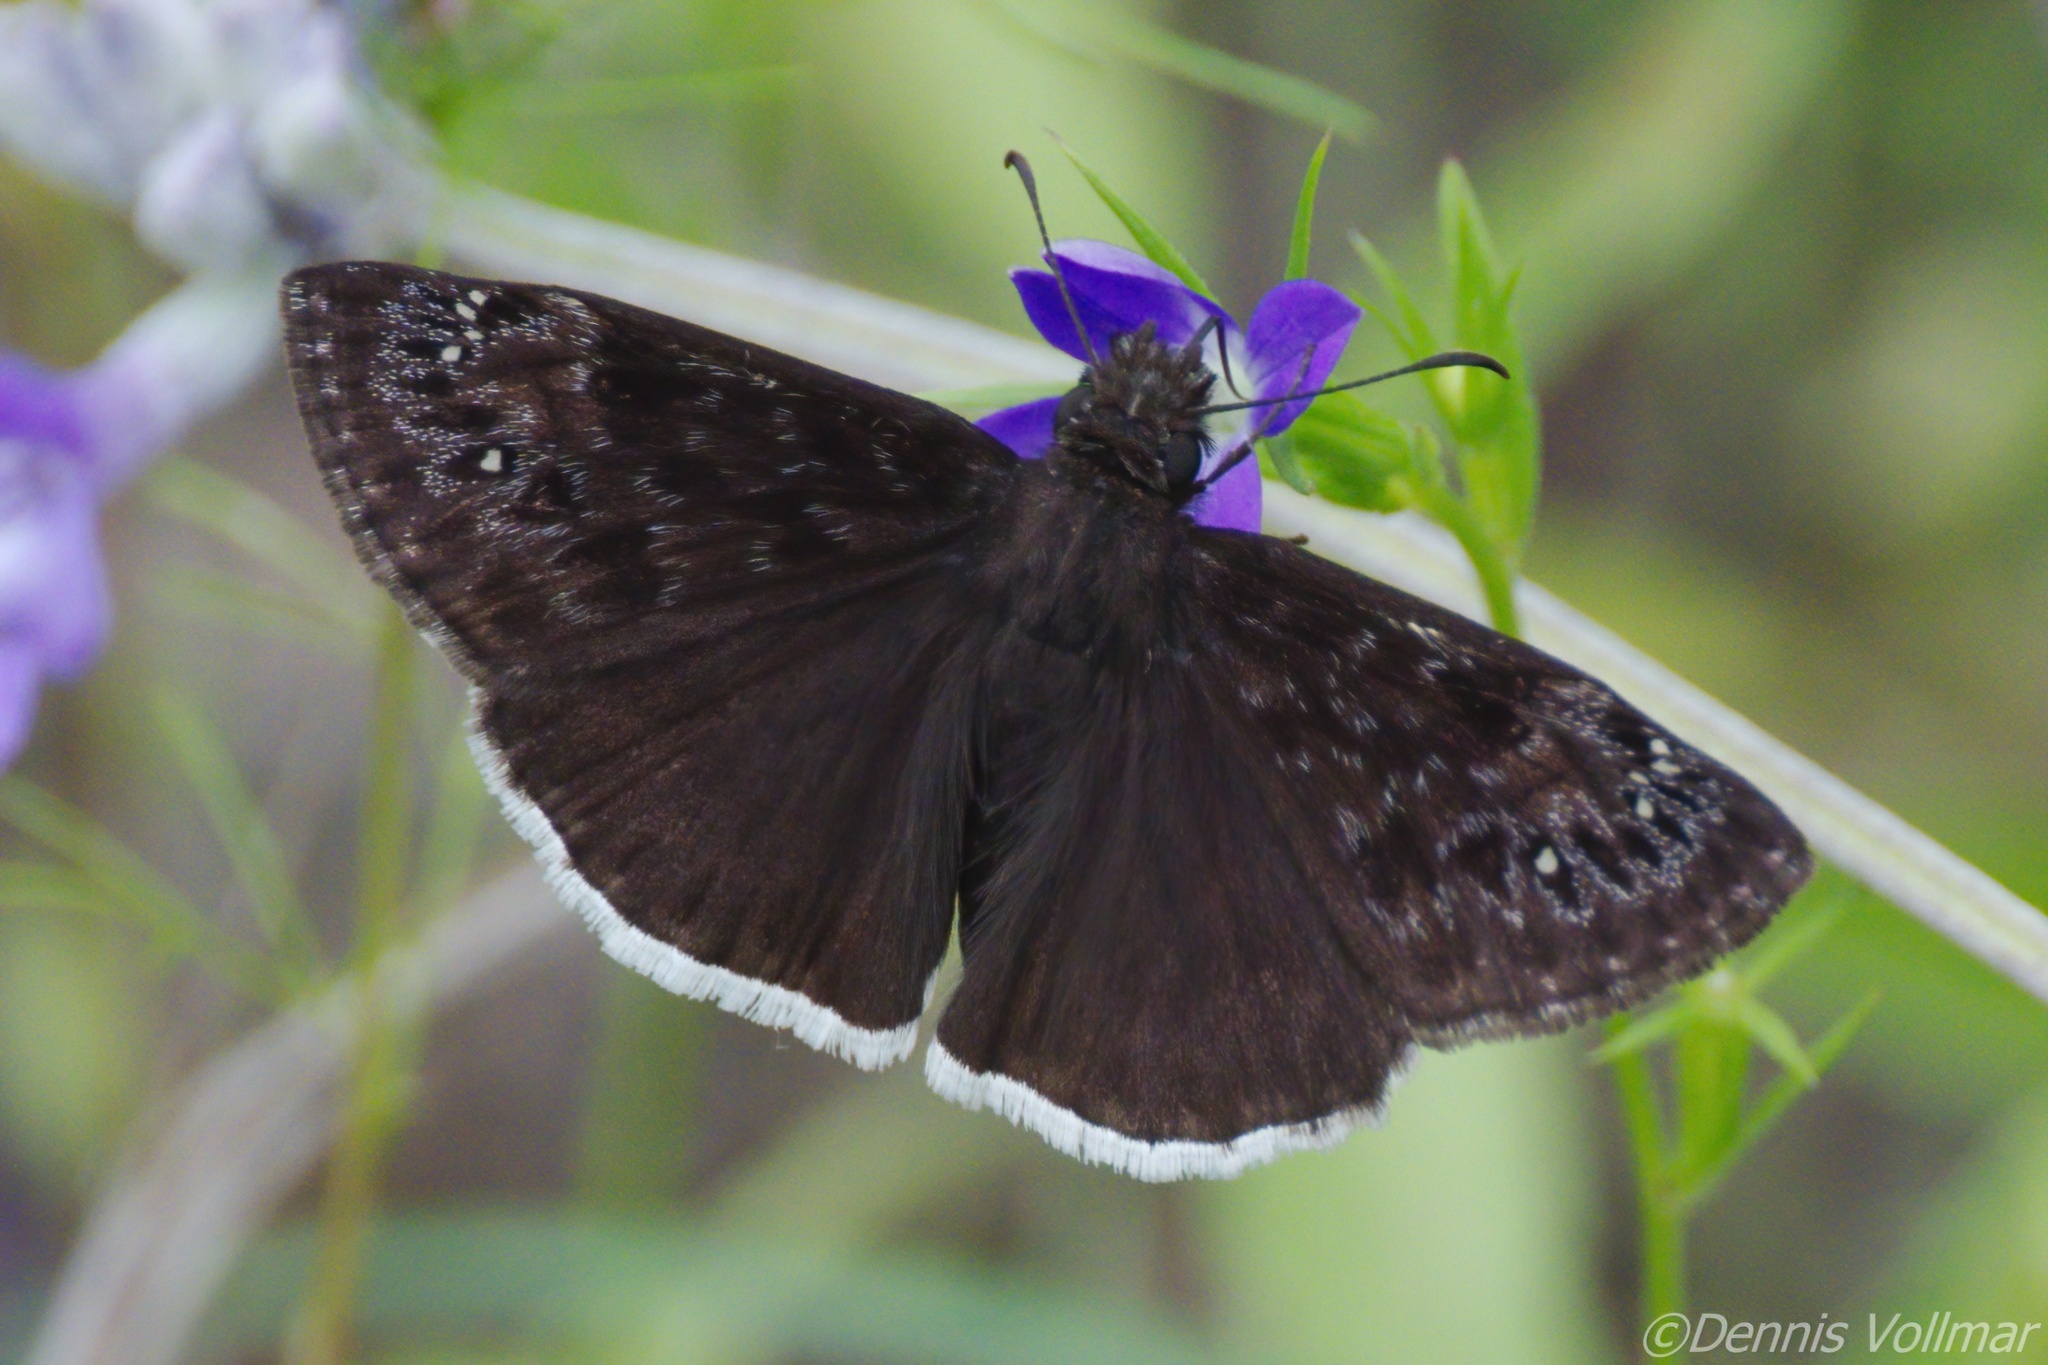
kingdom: Animalia
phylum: Arthropoda
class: Insecta
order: Lepidoptera
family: Hesperiidae
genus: Erynnis
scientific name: Erynnis tristis
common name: Mournful duskywing
